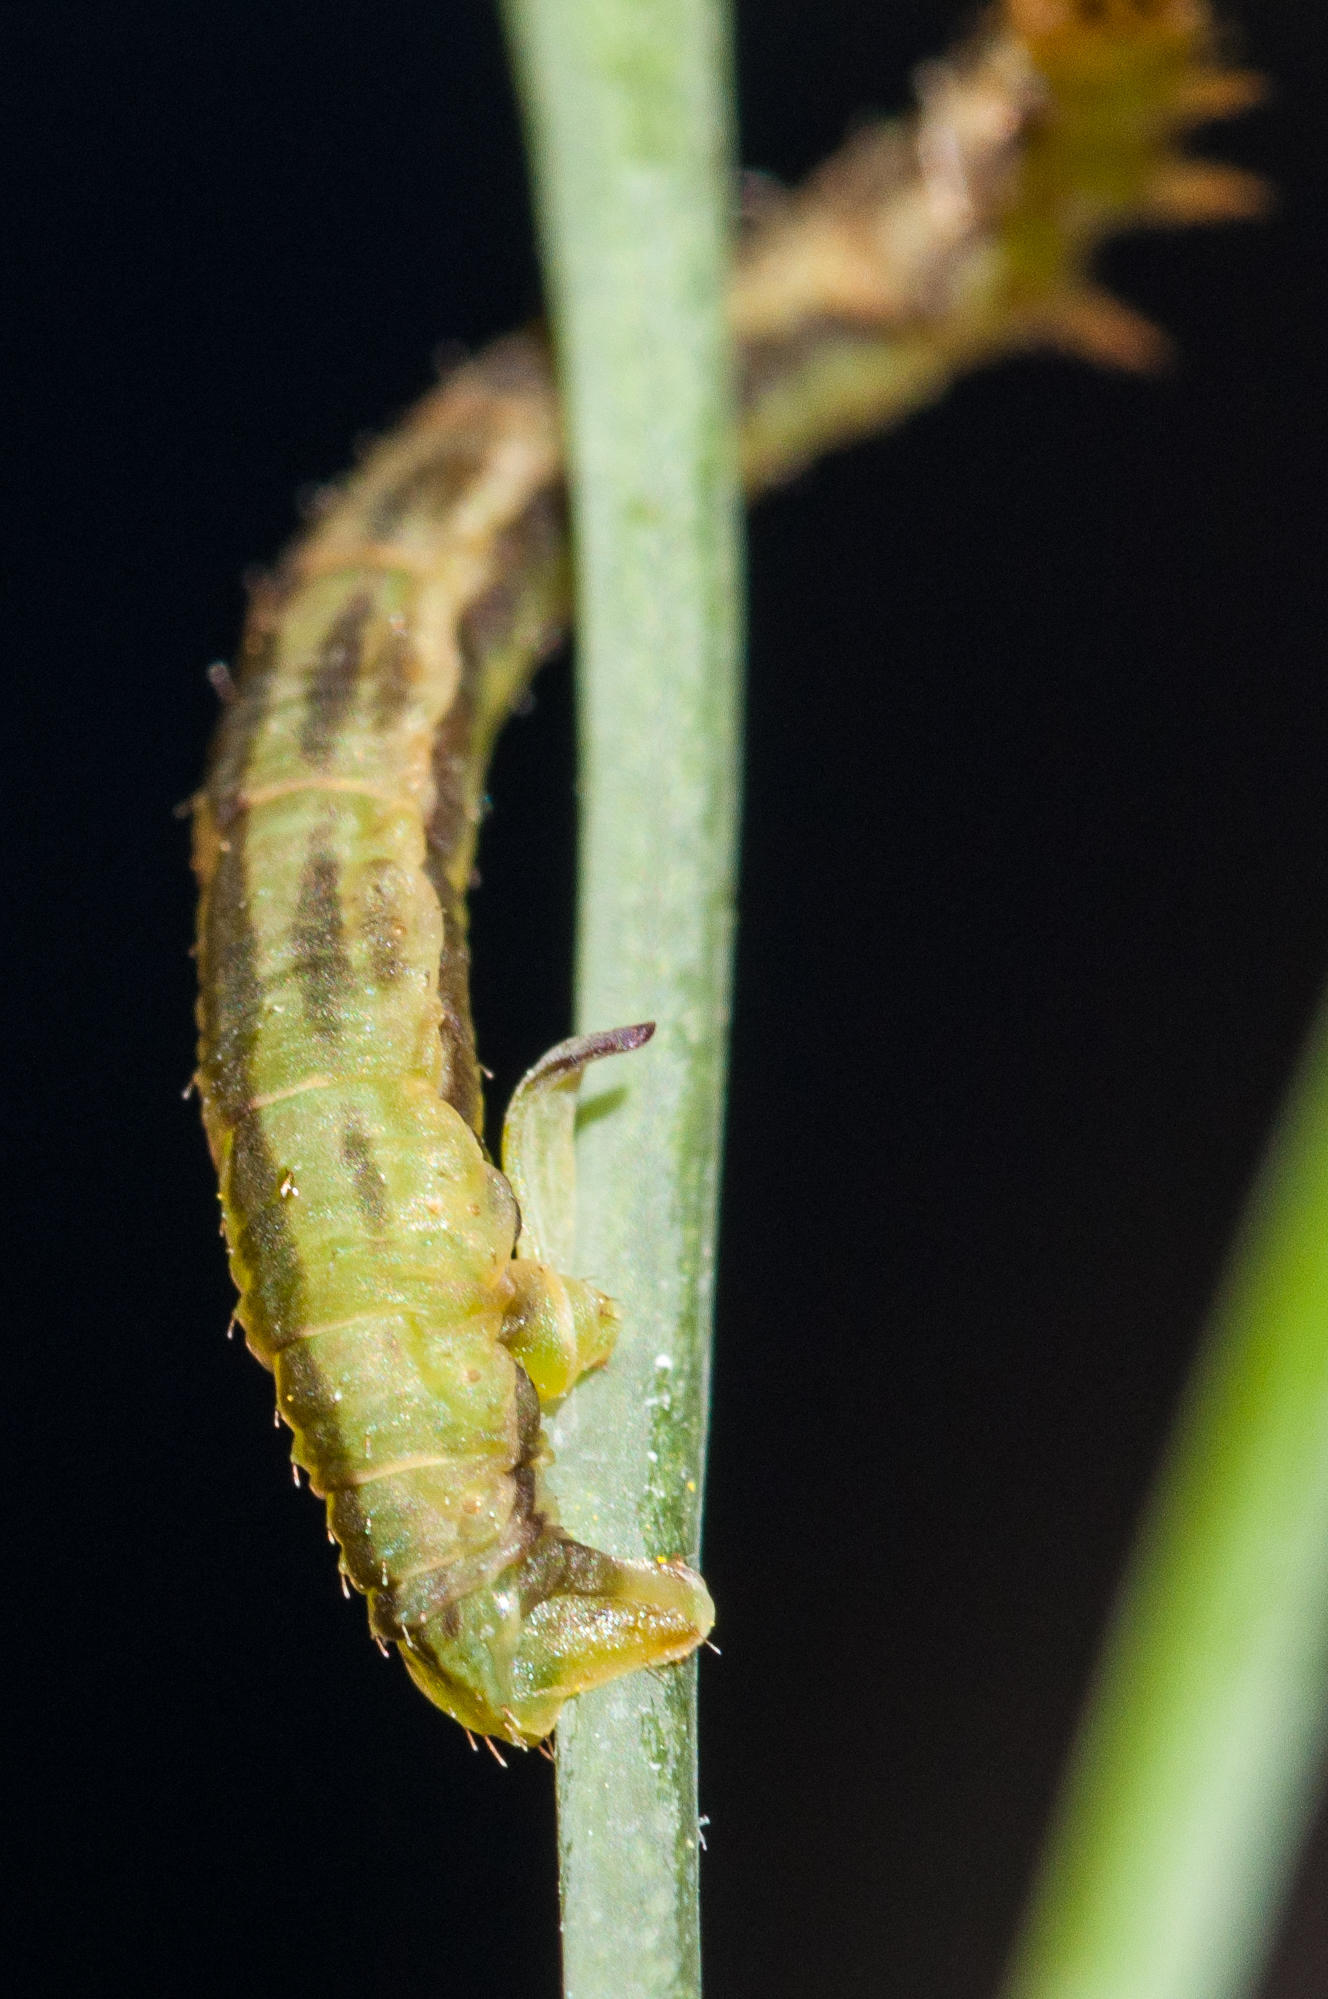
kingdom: Animalia
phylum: Arthropoda
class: Insecta
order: Lepidoptera
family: Geometridae
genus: Eupithecia
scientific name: Eupithecia sagittata
